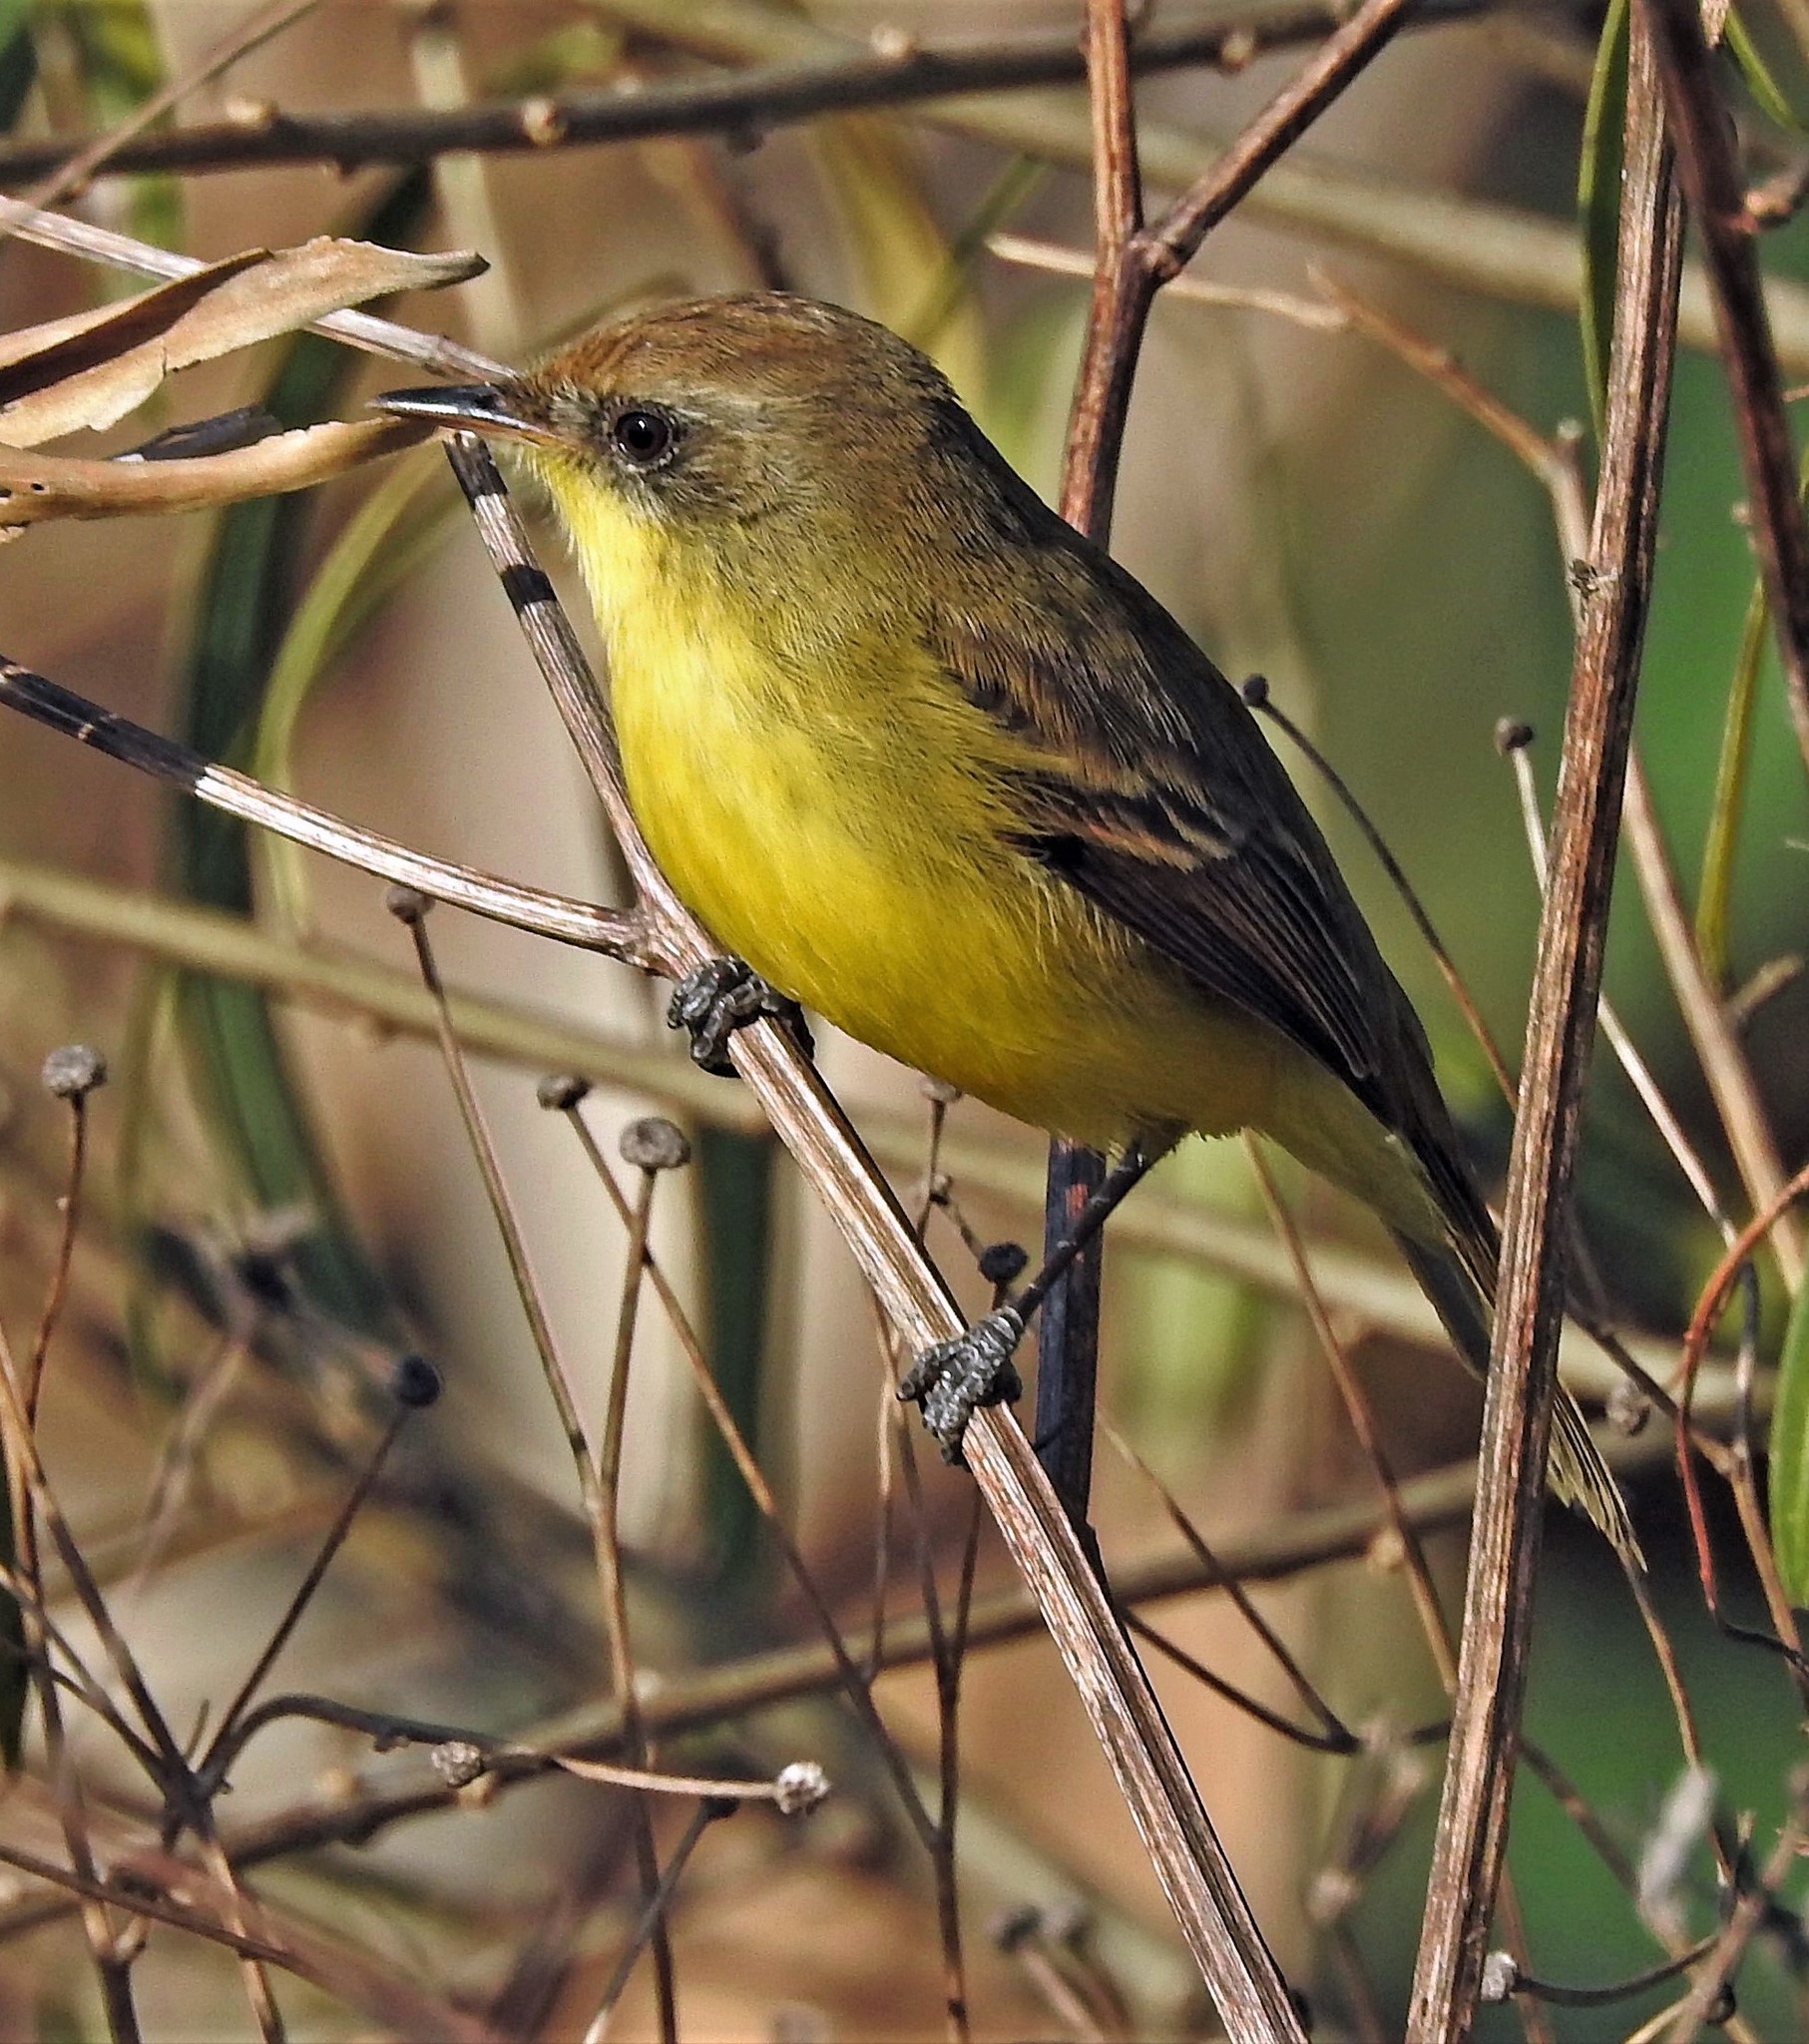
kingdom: Animalia
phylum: Chordata
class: Aves
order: Passeriformes
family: Tyrannidae
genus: Pseudocolopteryx
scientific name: Pseudocolopteryx flaviventris
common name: Warbling doradito
